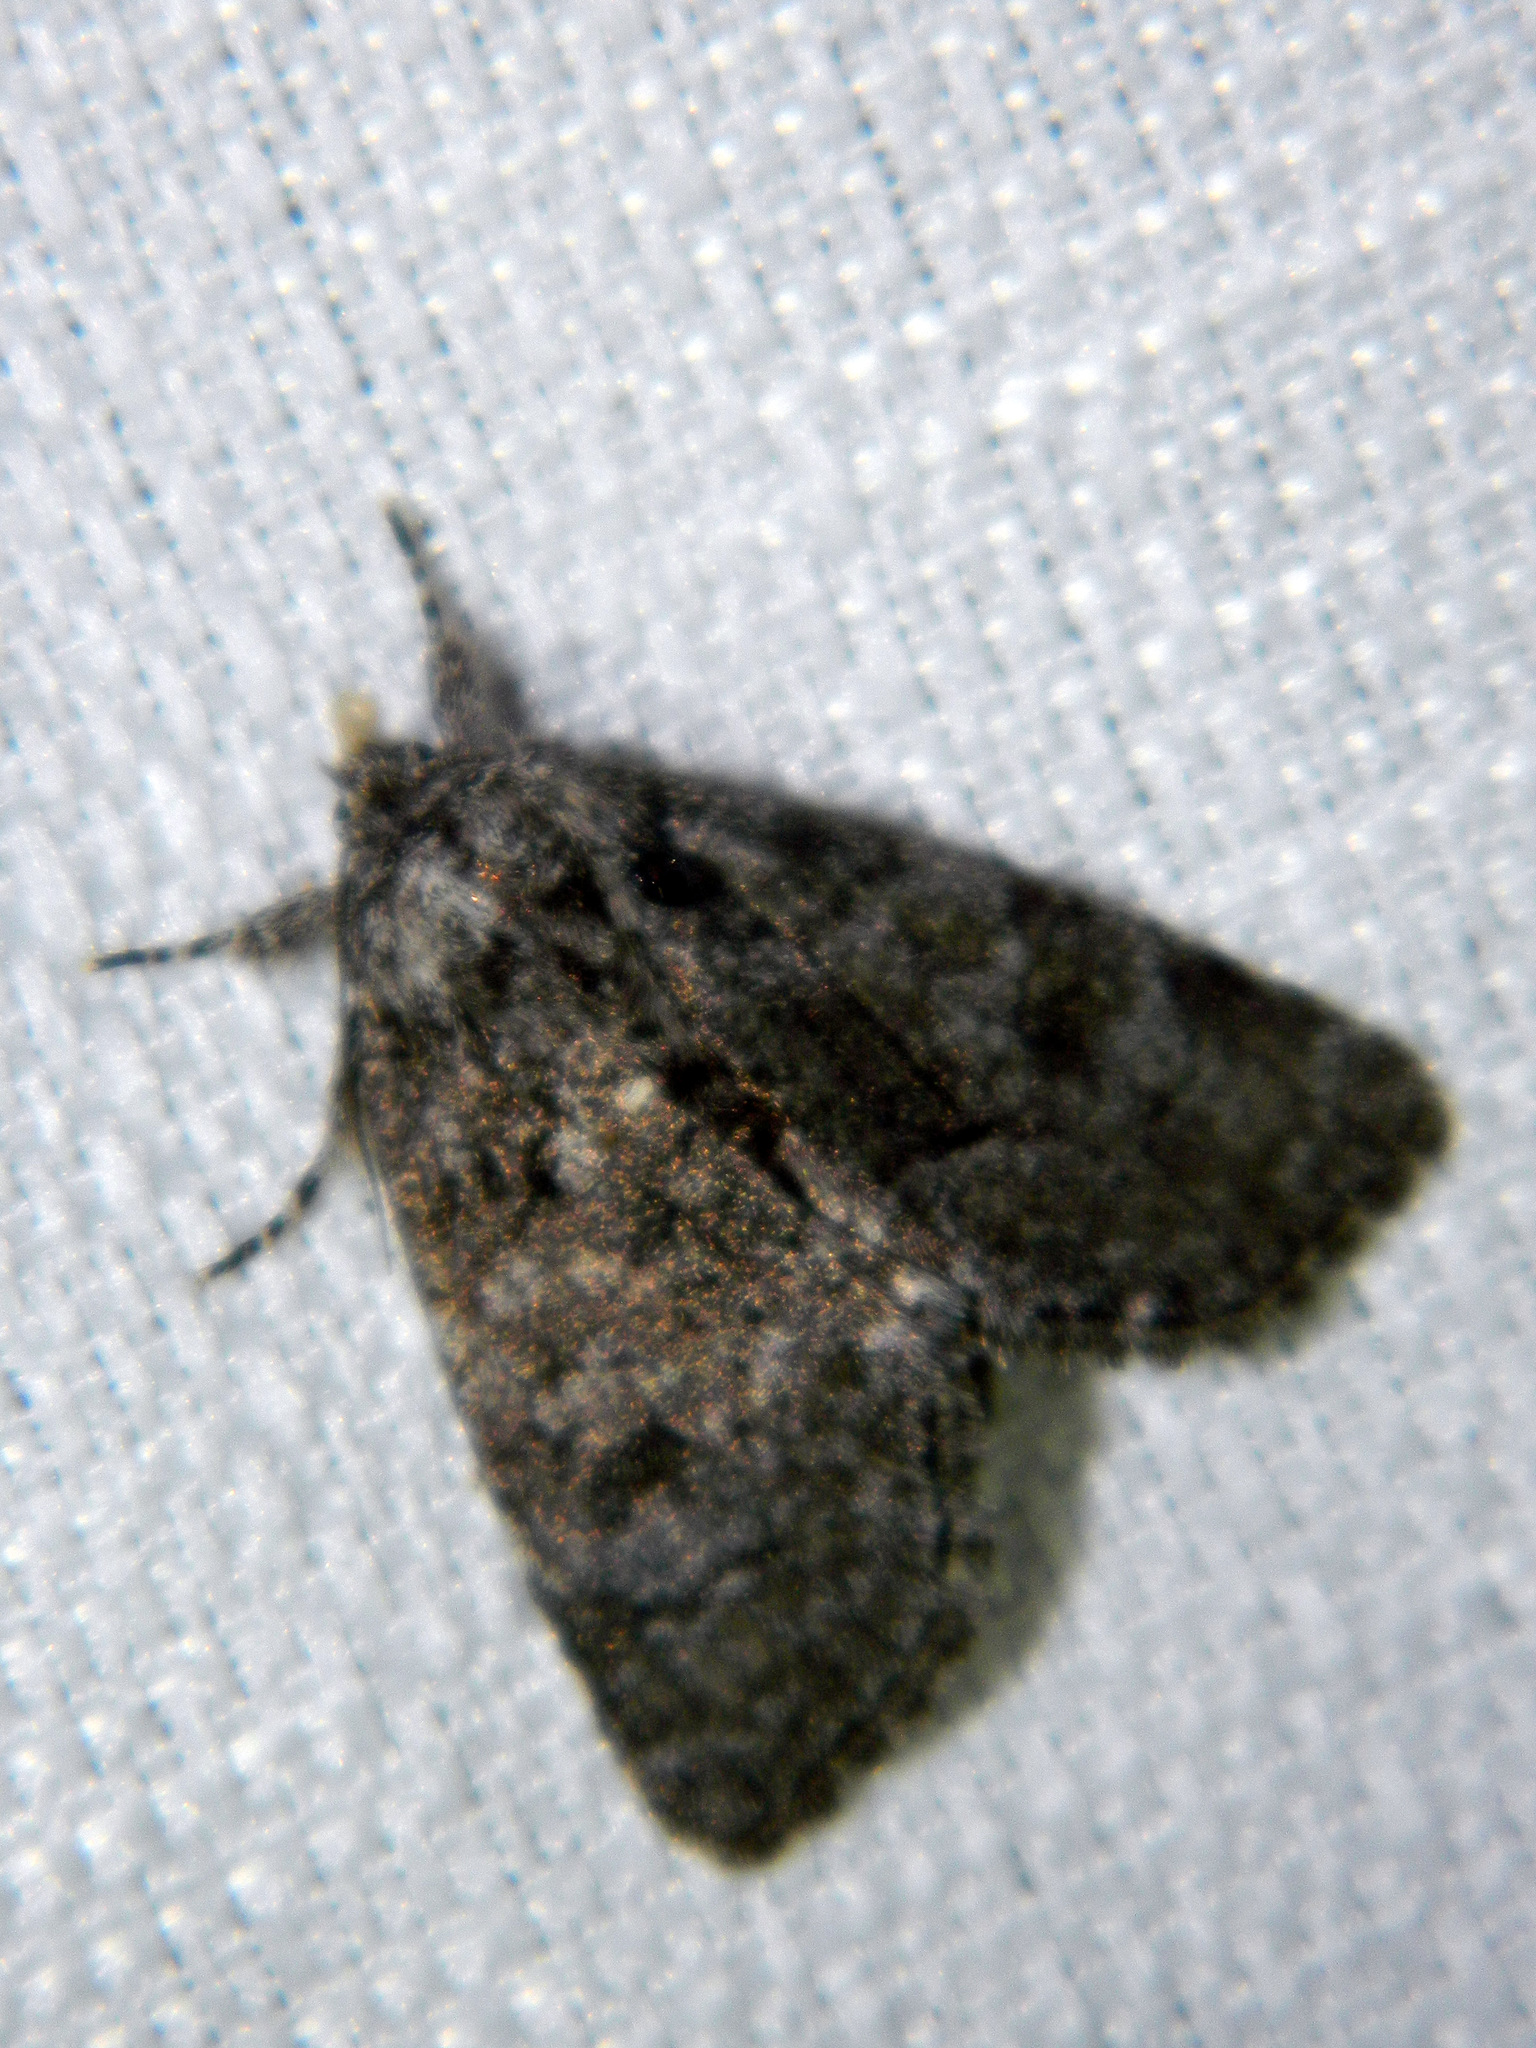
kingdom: Animalia
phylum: Arthropoda
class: Insecta
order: Lepidoptera
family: Noctuidae
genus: Raphia
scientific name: Raphia frater
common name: Brother
